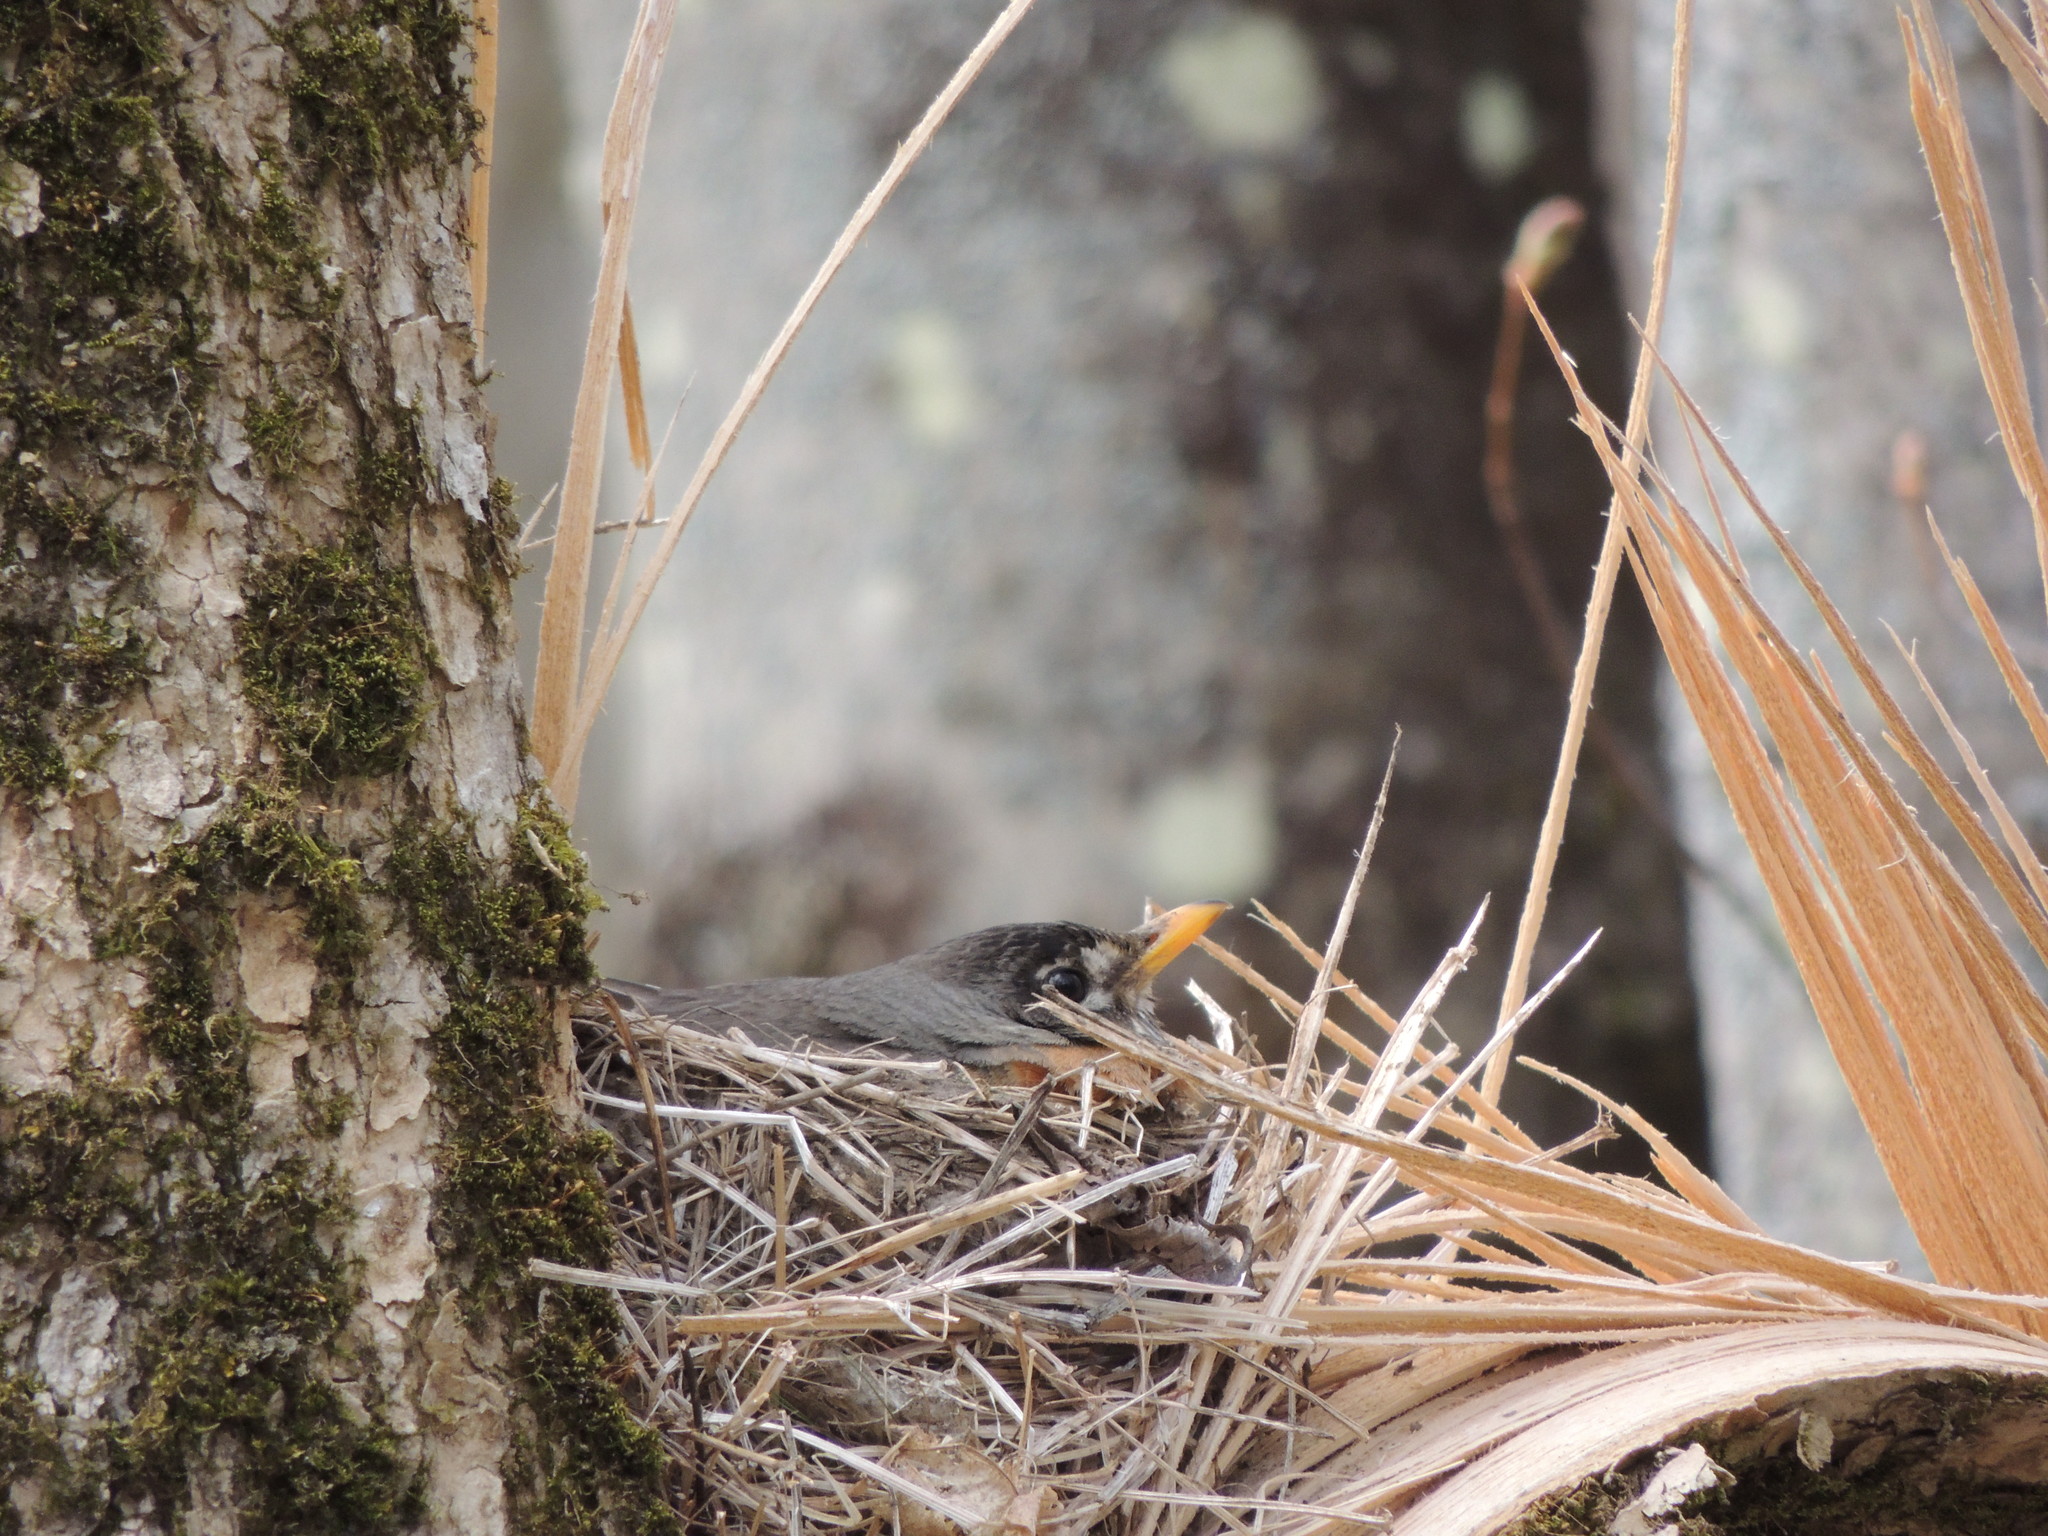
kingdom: Animalia
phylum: Chordata
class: Aves
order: Passeriformes
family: Turdidae
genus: Turdus
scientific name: Turdus migratorius
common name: American robin
